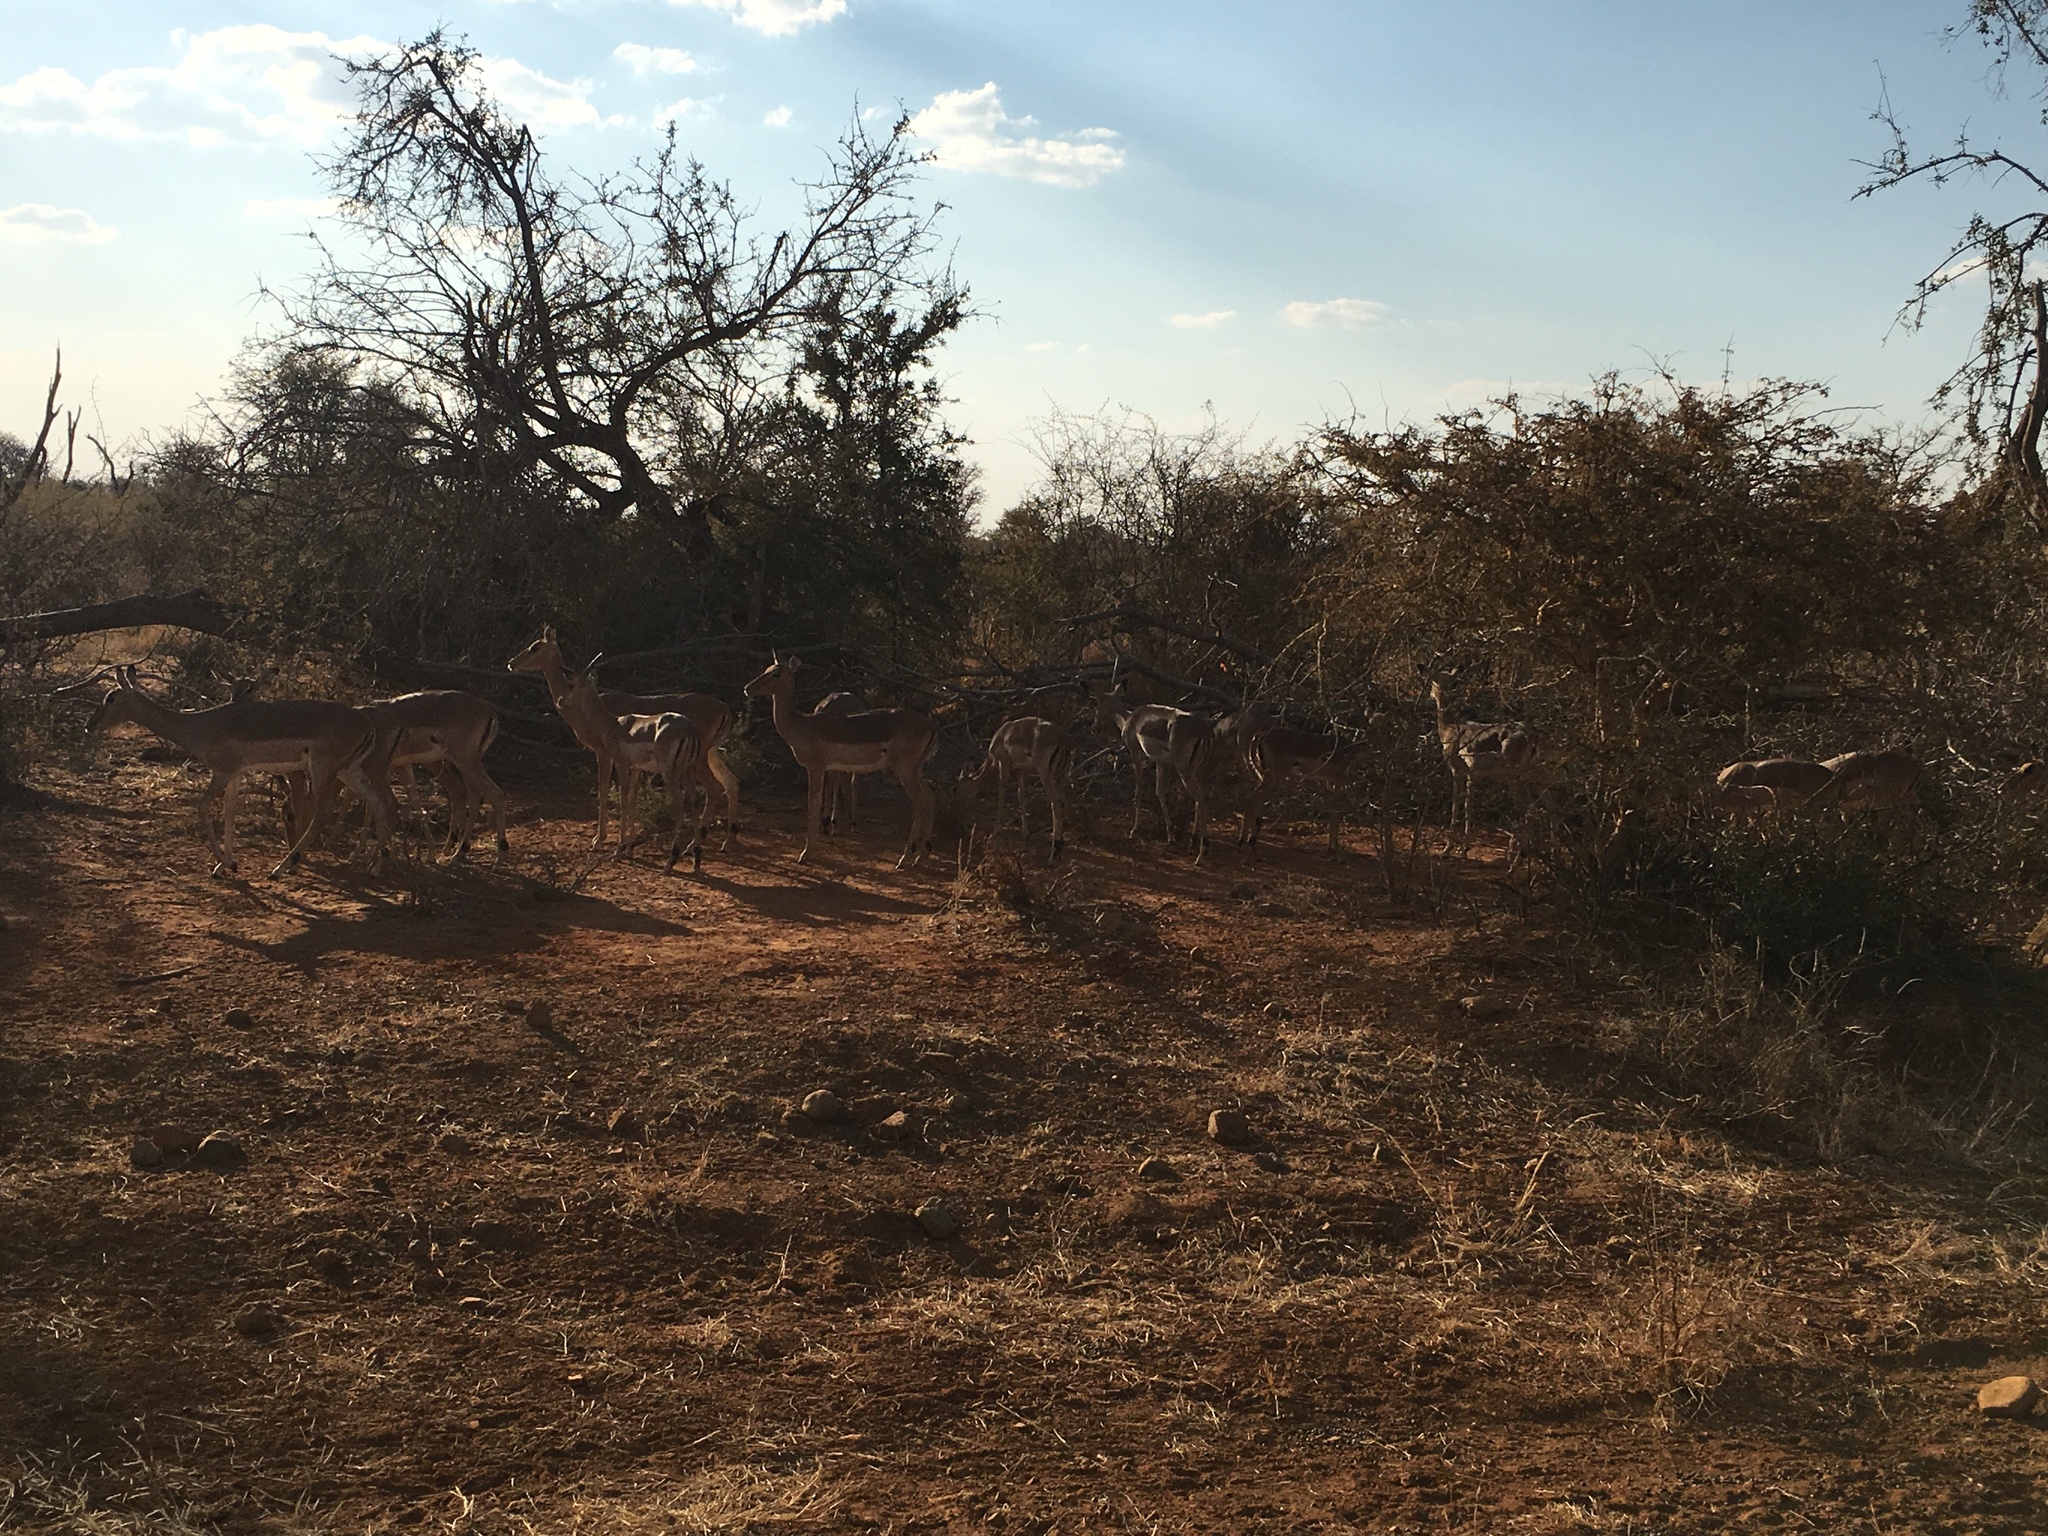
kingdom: Animalia
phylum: Chordata
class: Mammalia
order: Artiodactyla
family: Bovidae
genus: Aepyceros
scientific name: Aepyceros melampus
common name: Impala
